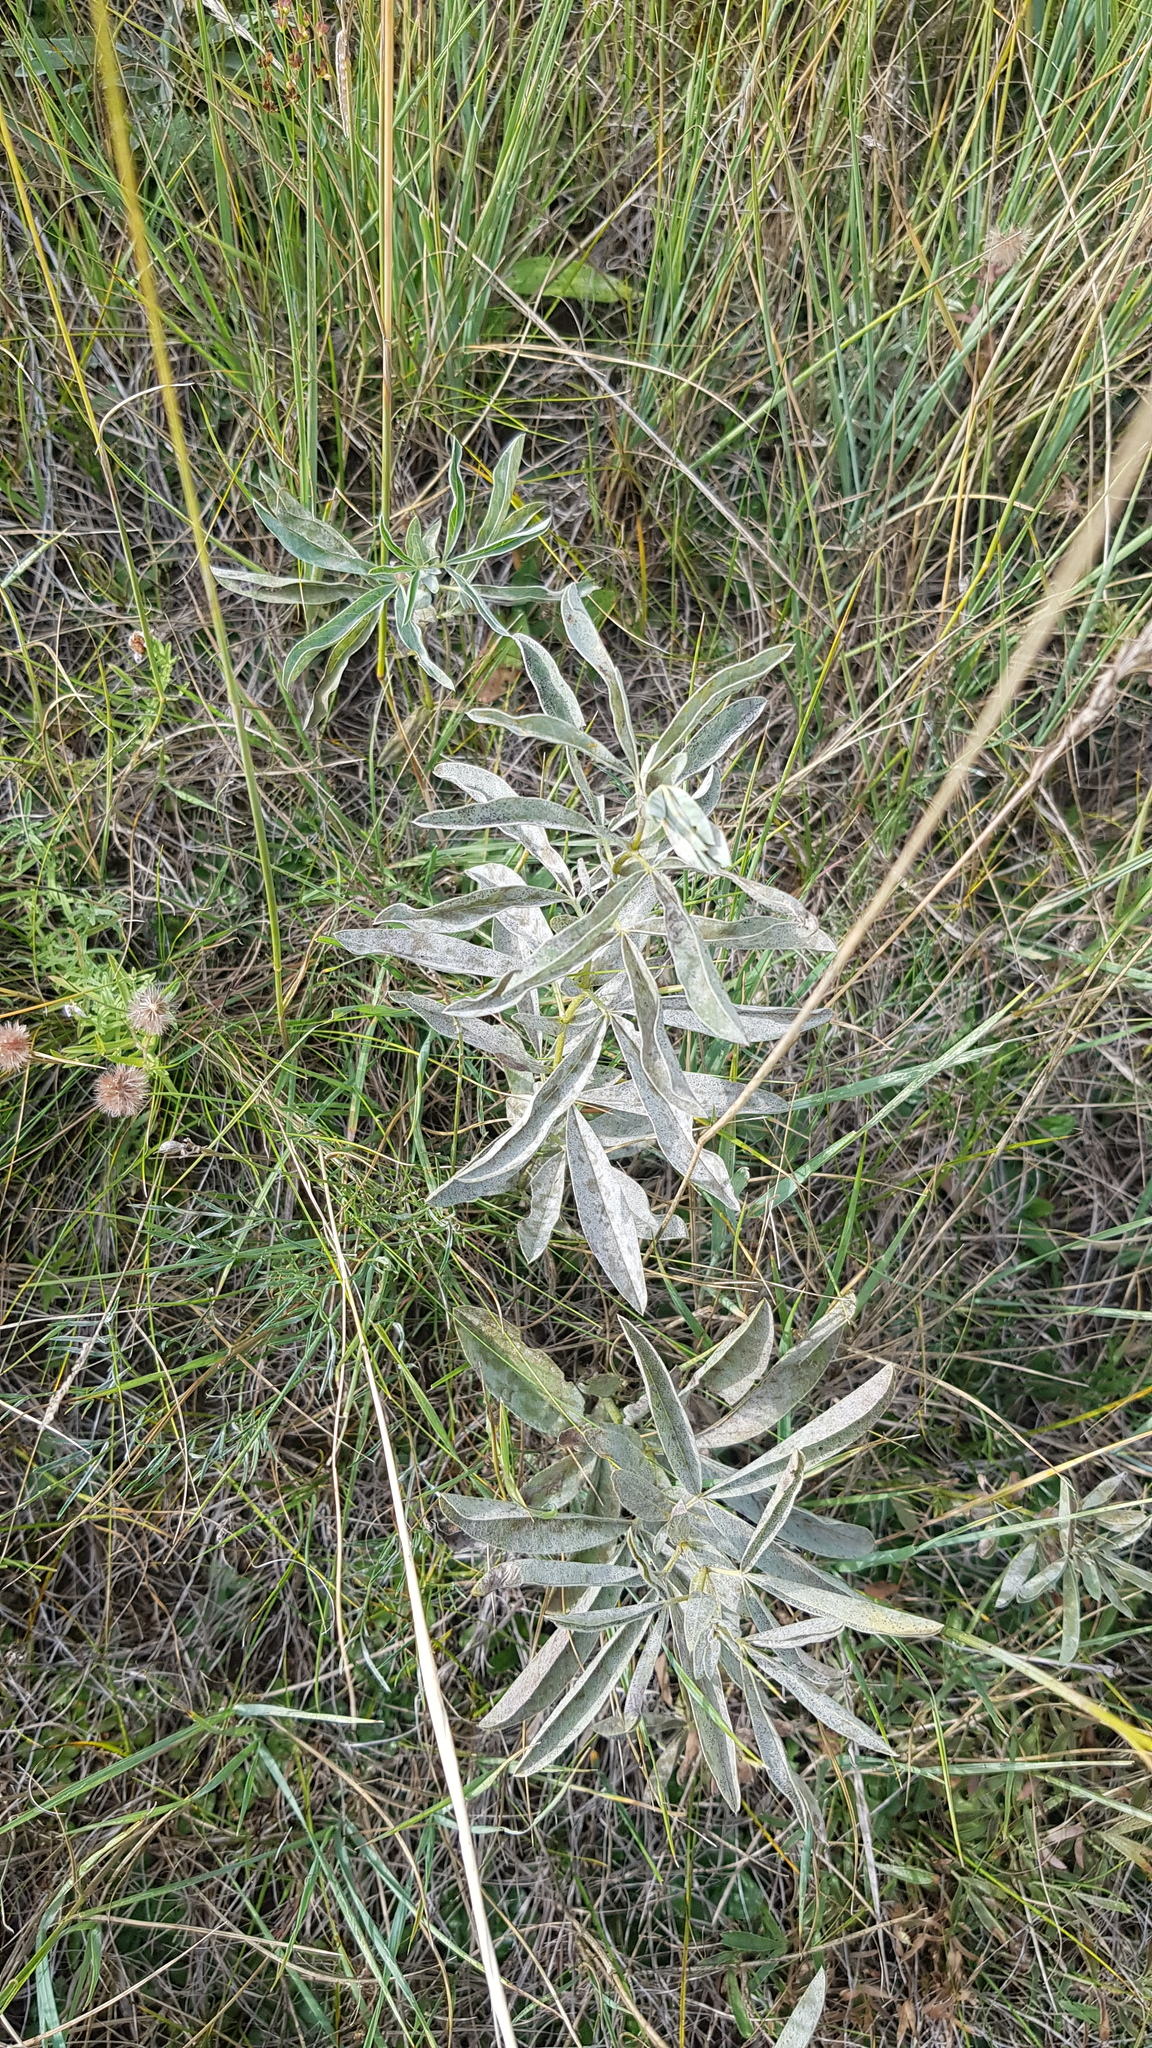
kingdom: Plantae
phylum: Tracheophyta
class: Magnoliopsida
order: Fabales
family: Fabaceae
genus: Thermopsis
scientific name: Thermopsis lanceolata
